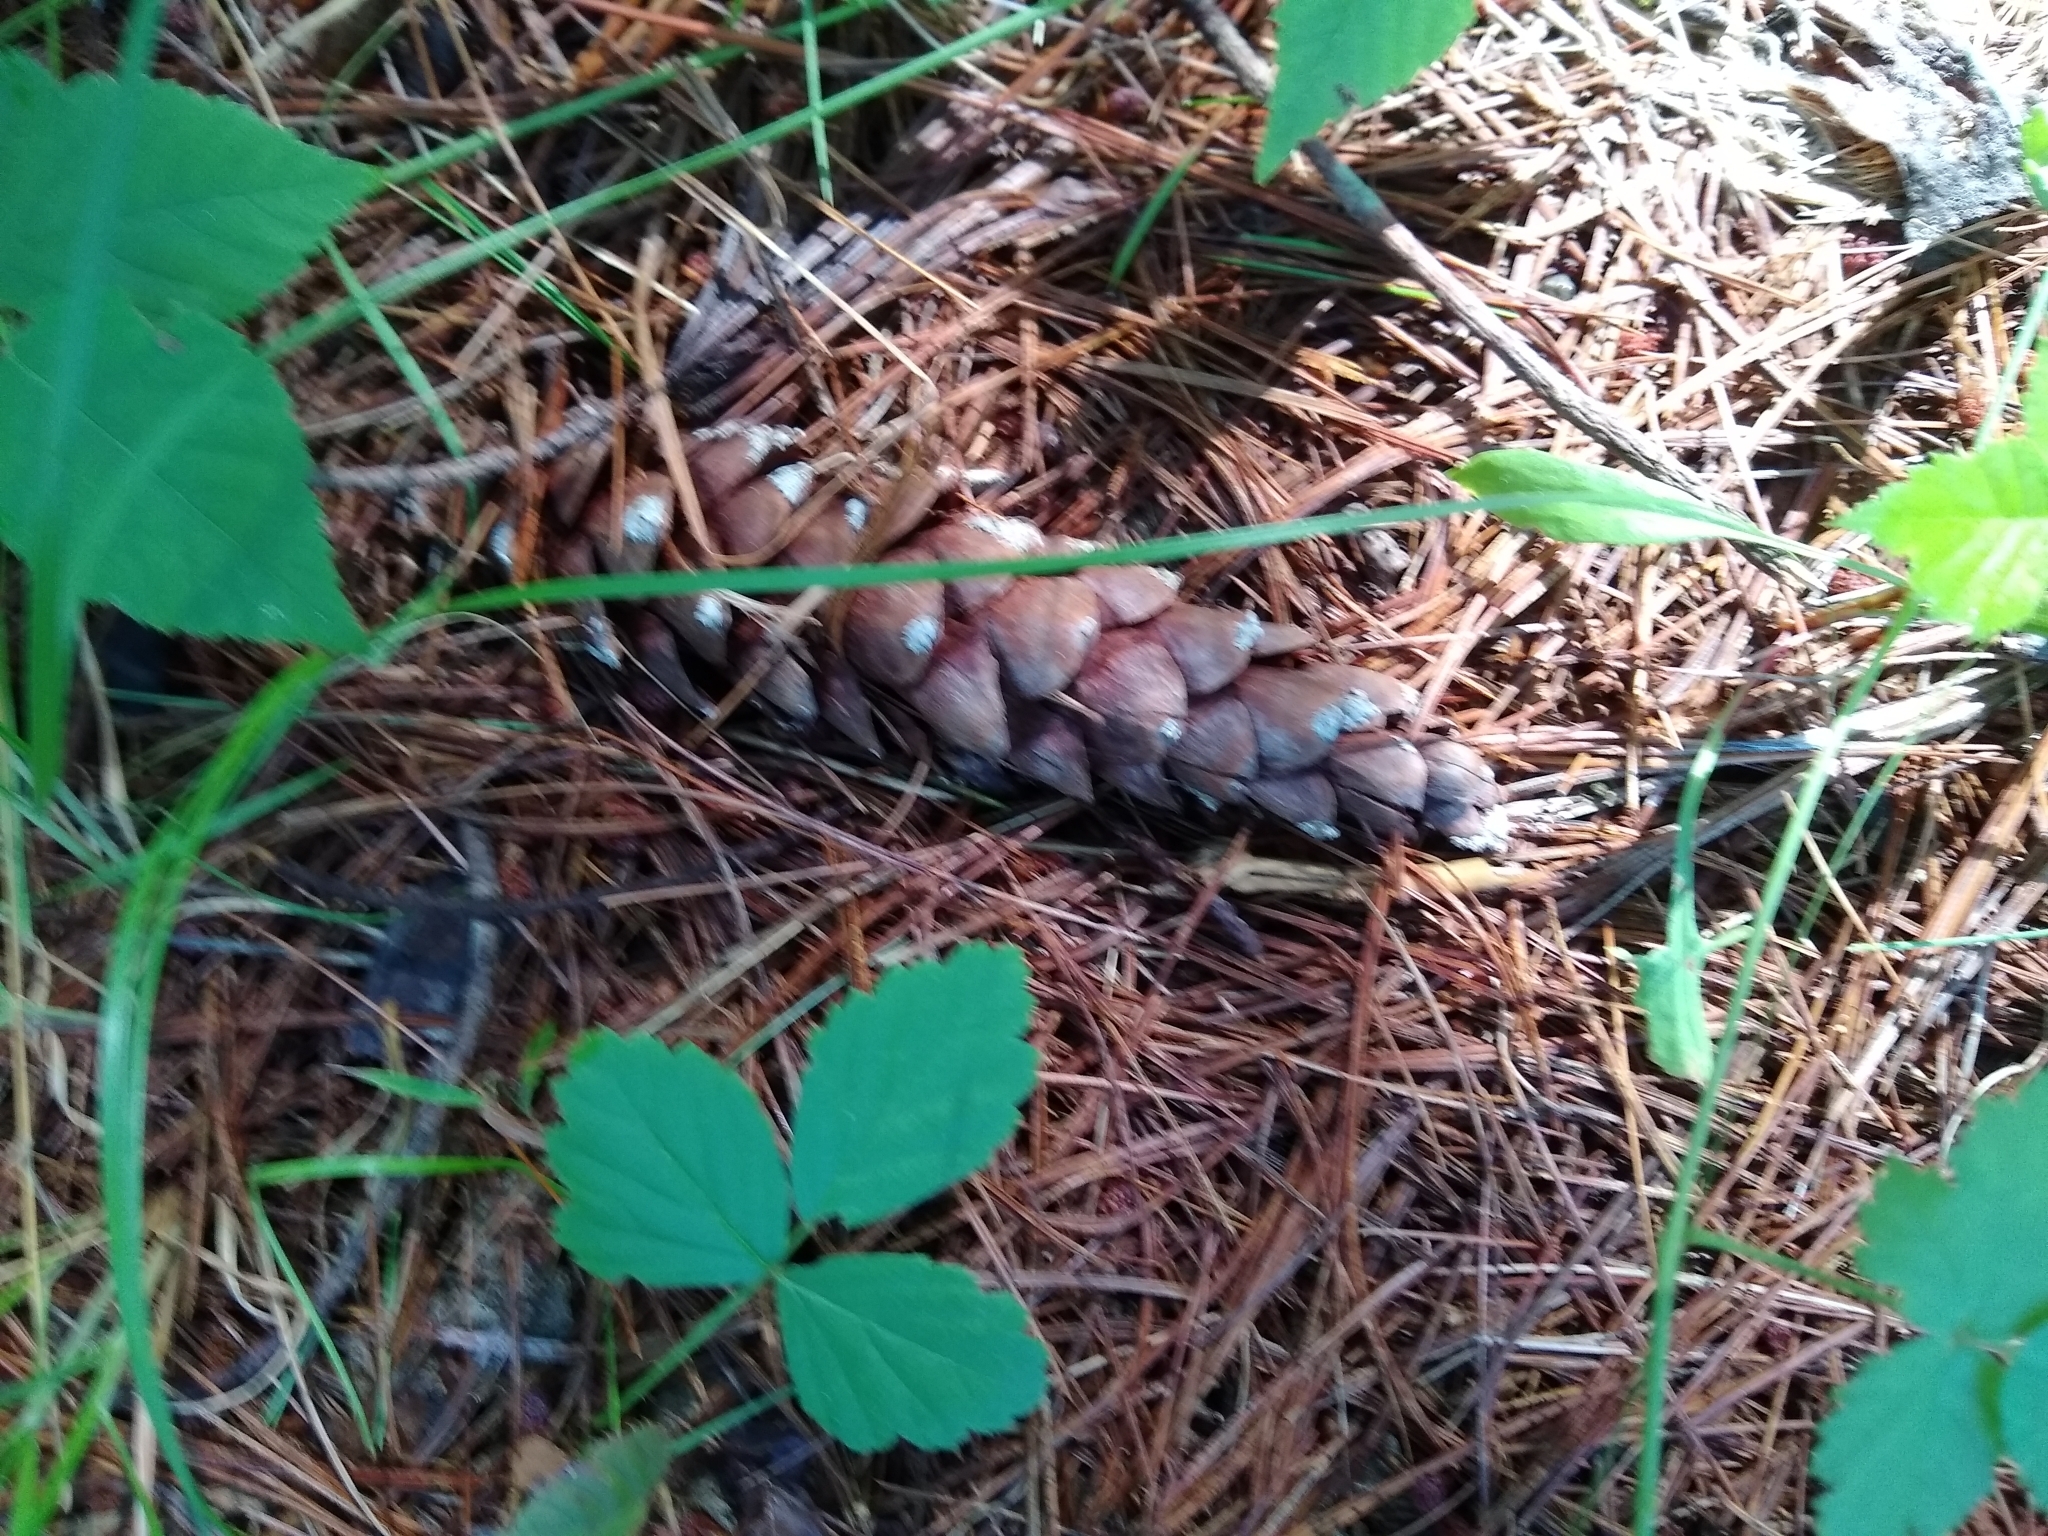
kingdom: Plantae
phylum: Tracheophyta
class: Pinopsida
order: Pinales
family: Pinaceae
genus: Pinus
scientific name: Pinus strobus
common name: Weymouth pine
